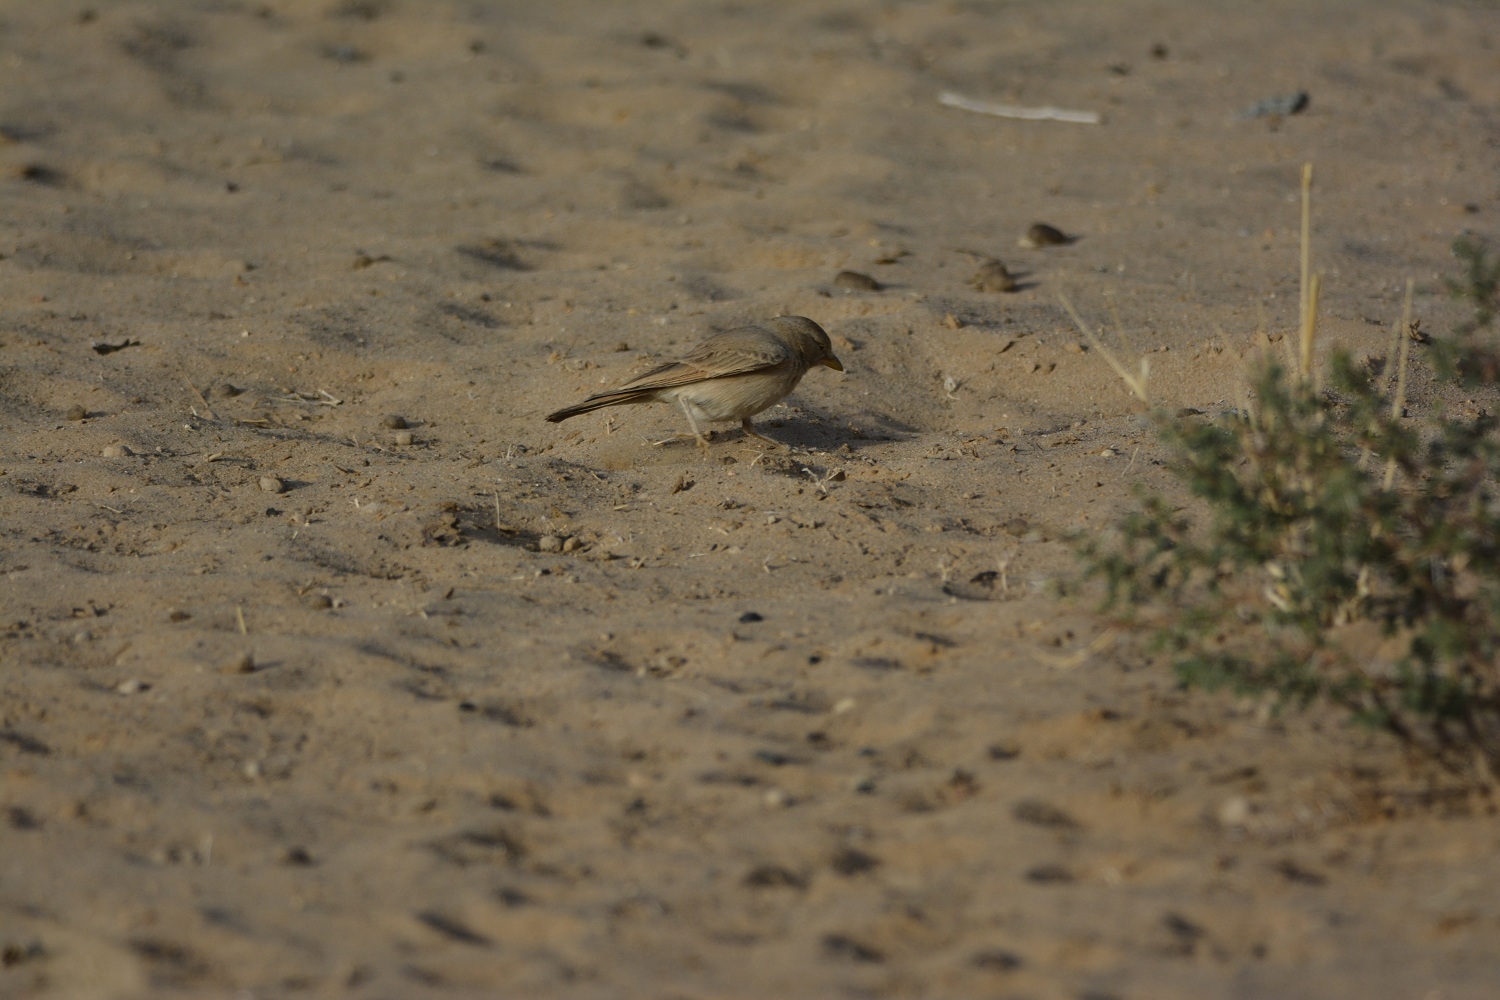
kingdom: Animalia
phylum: Chordata
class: Aves
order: Passeriformes
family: Alaudidae
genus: Ammomanes
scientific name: Ammomanes deserti
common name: Desert lark
